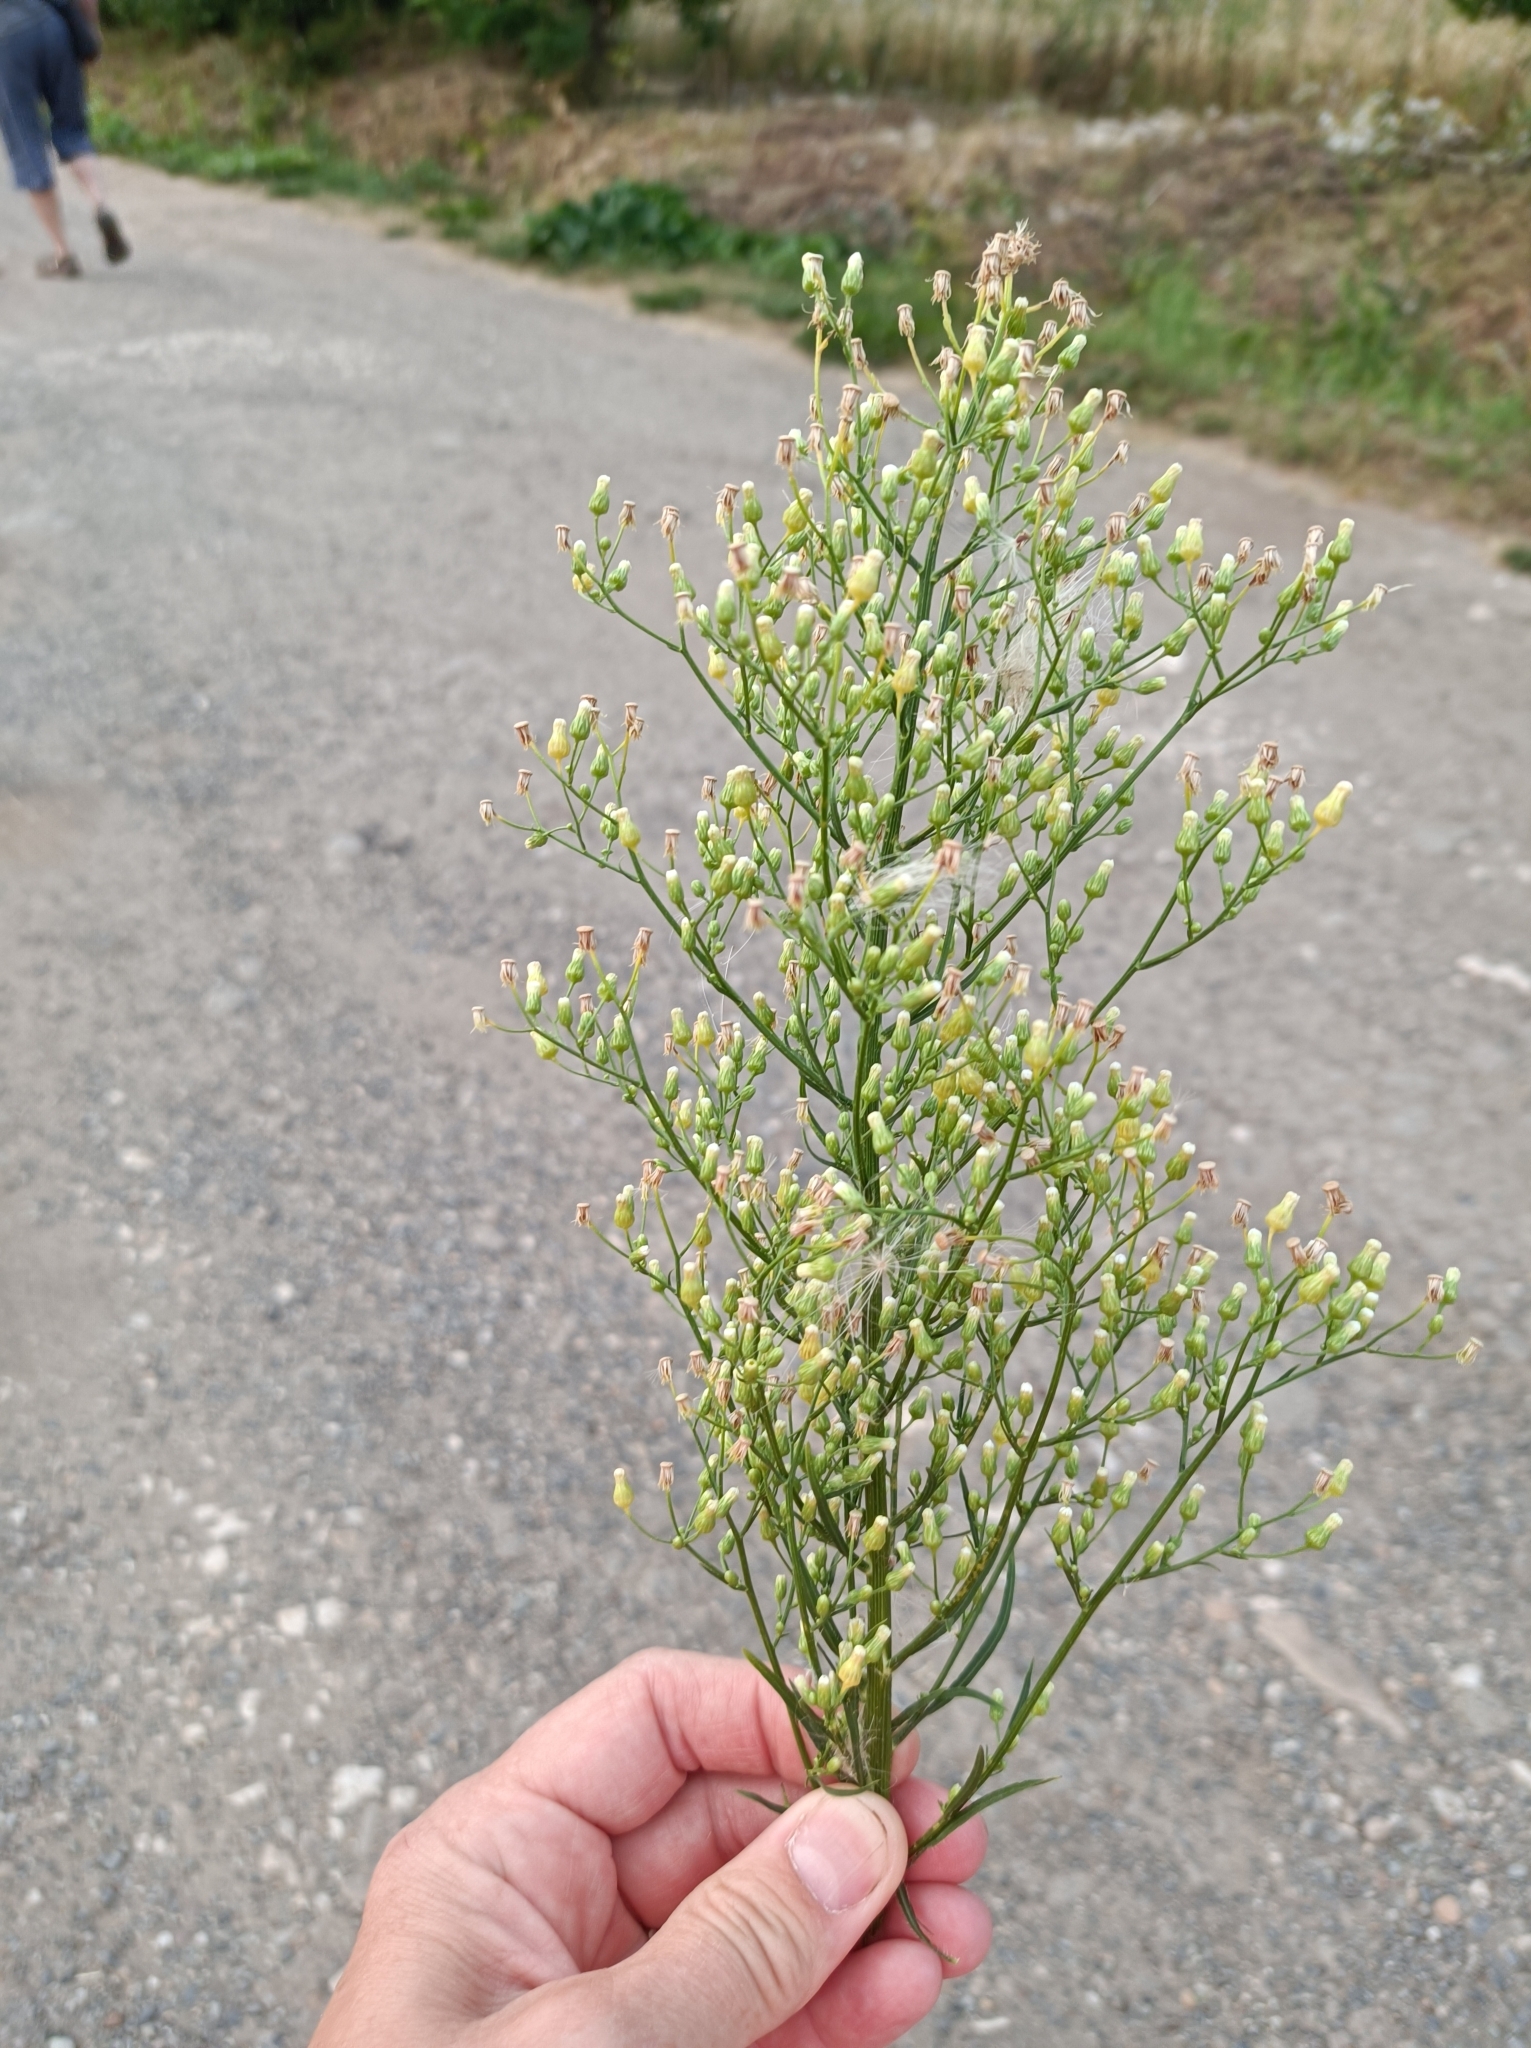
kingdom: Plantae
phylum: Tracheophyta
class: Magnoliopsida
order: Asterales
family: Asteraceae
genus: Erigeron
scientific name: Erigeron canadensis
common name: Canadian fleabane
